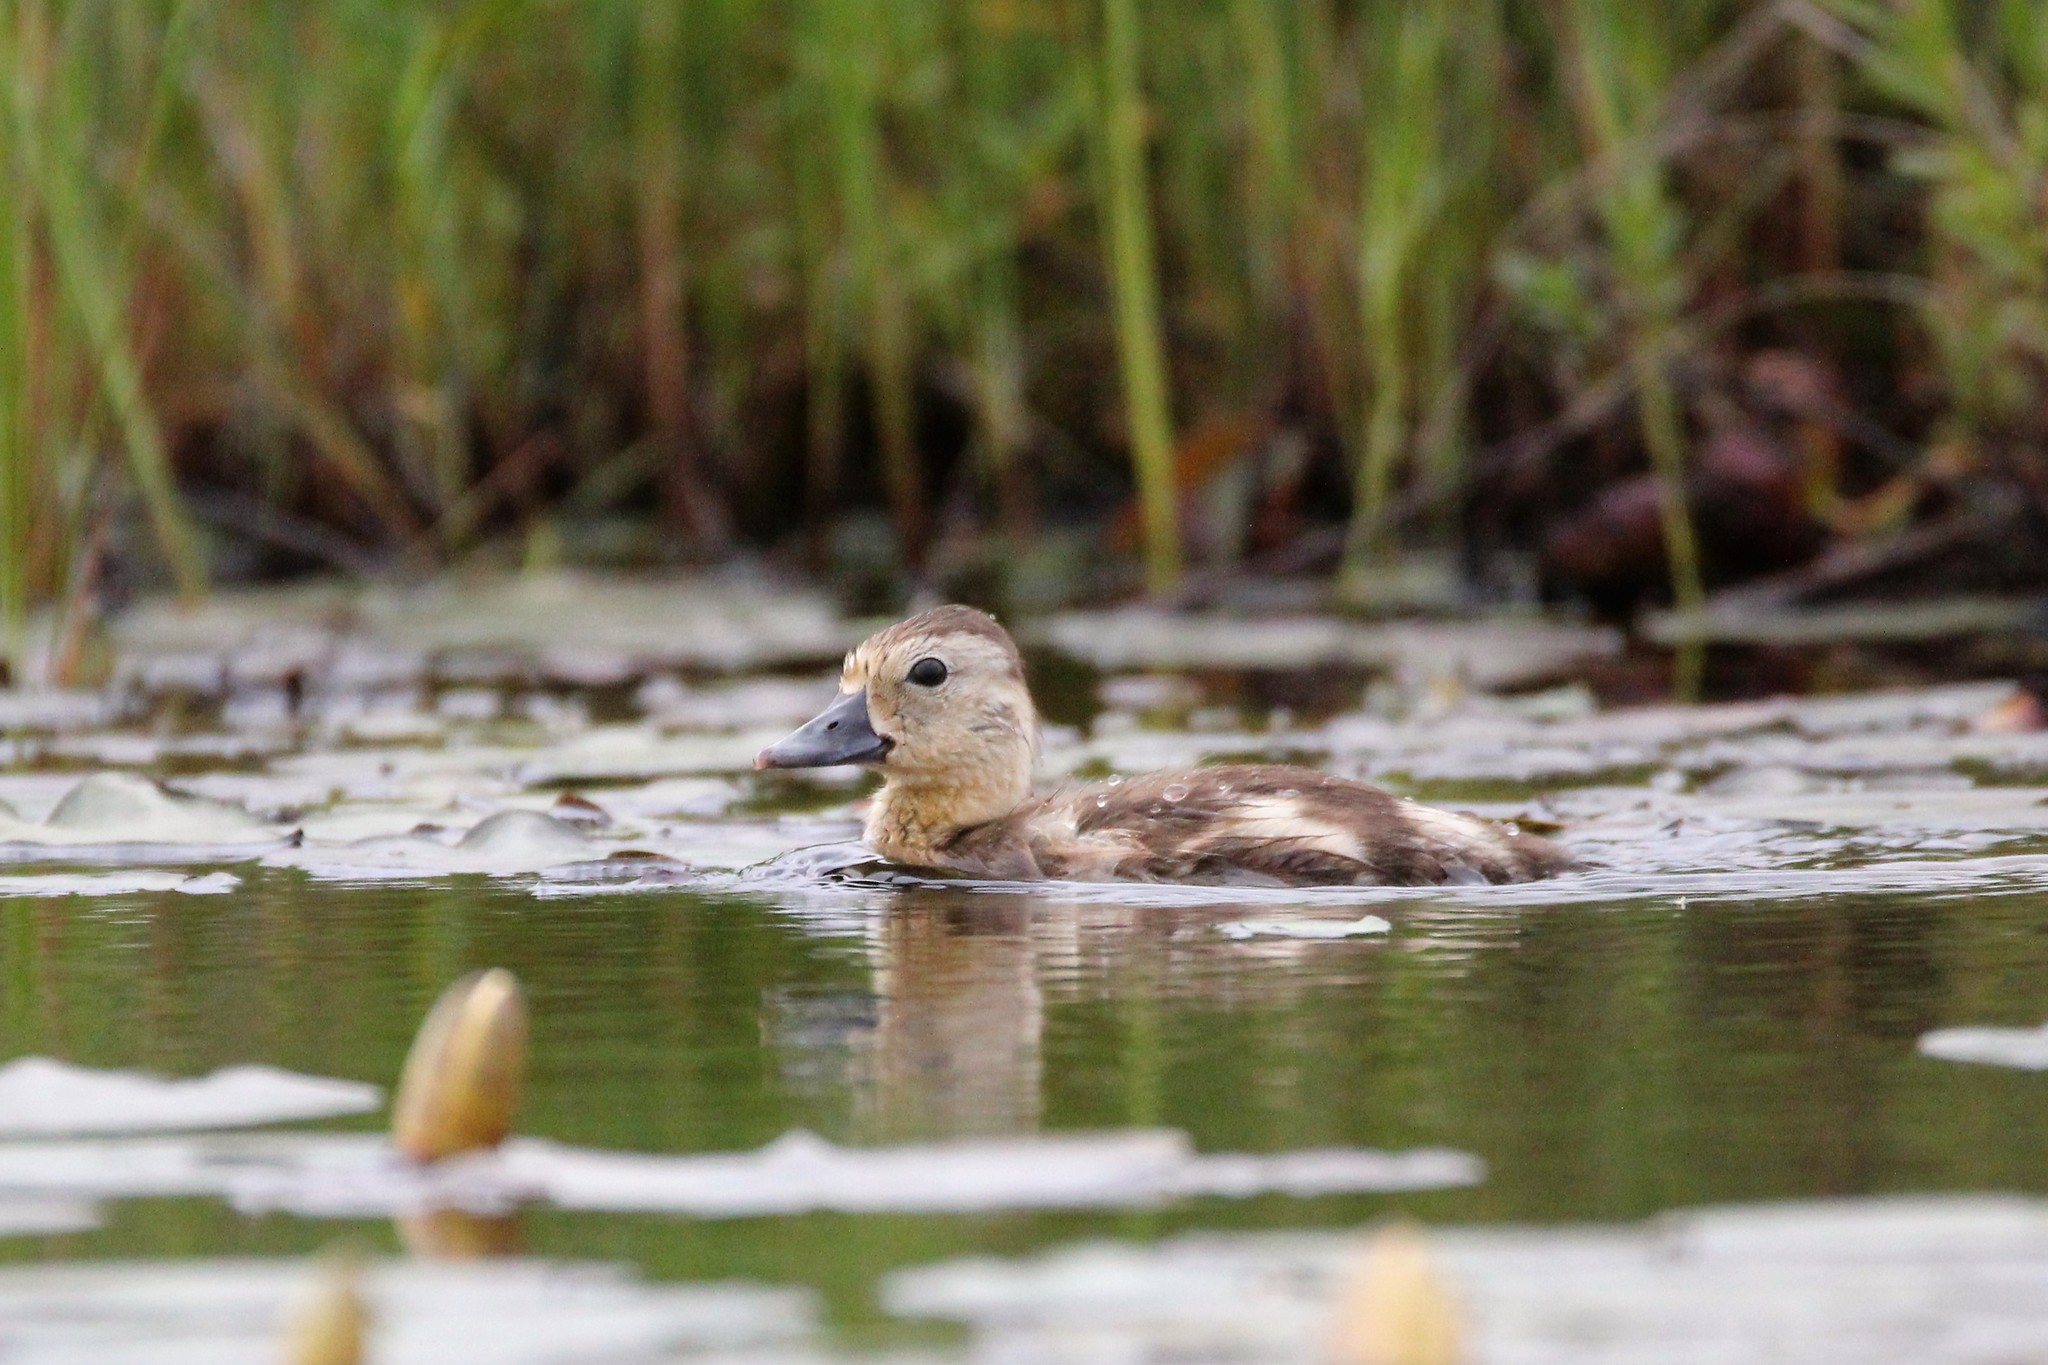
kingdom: Animalia
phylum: Chordata
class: Aves
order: Anseriformes
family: Anatidae
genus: Aythya
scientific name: Aythya collaris
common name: Ring-necked duck
